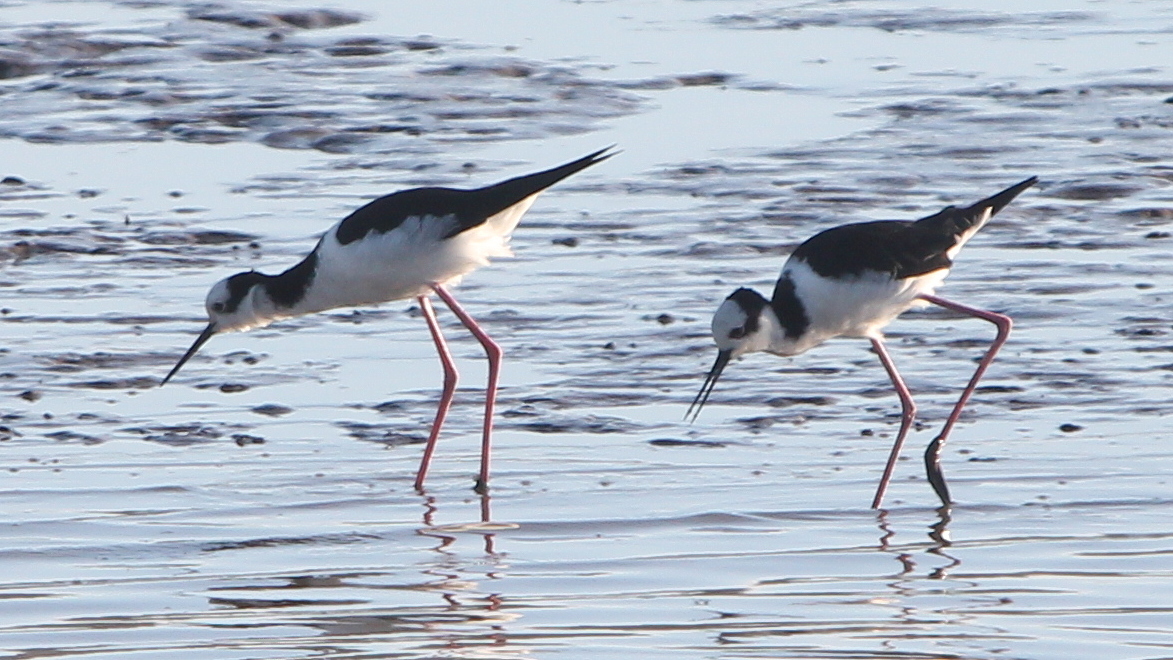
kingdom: Animalia
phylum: Chordata
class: Aves
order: Charadriiformes
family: Recurvirostridae
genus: Himantopus
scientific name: Himantopus mexicanus
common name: Black-necked stilt
